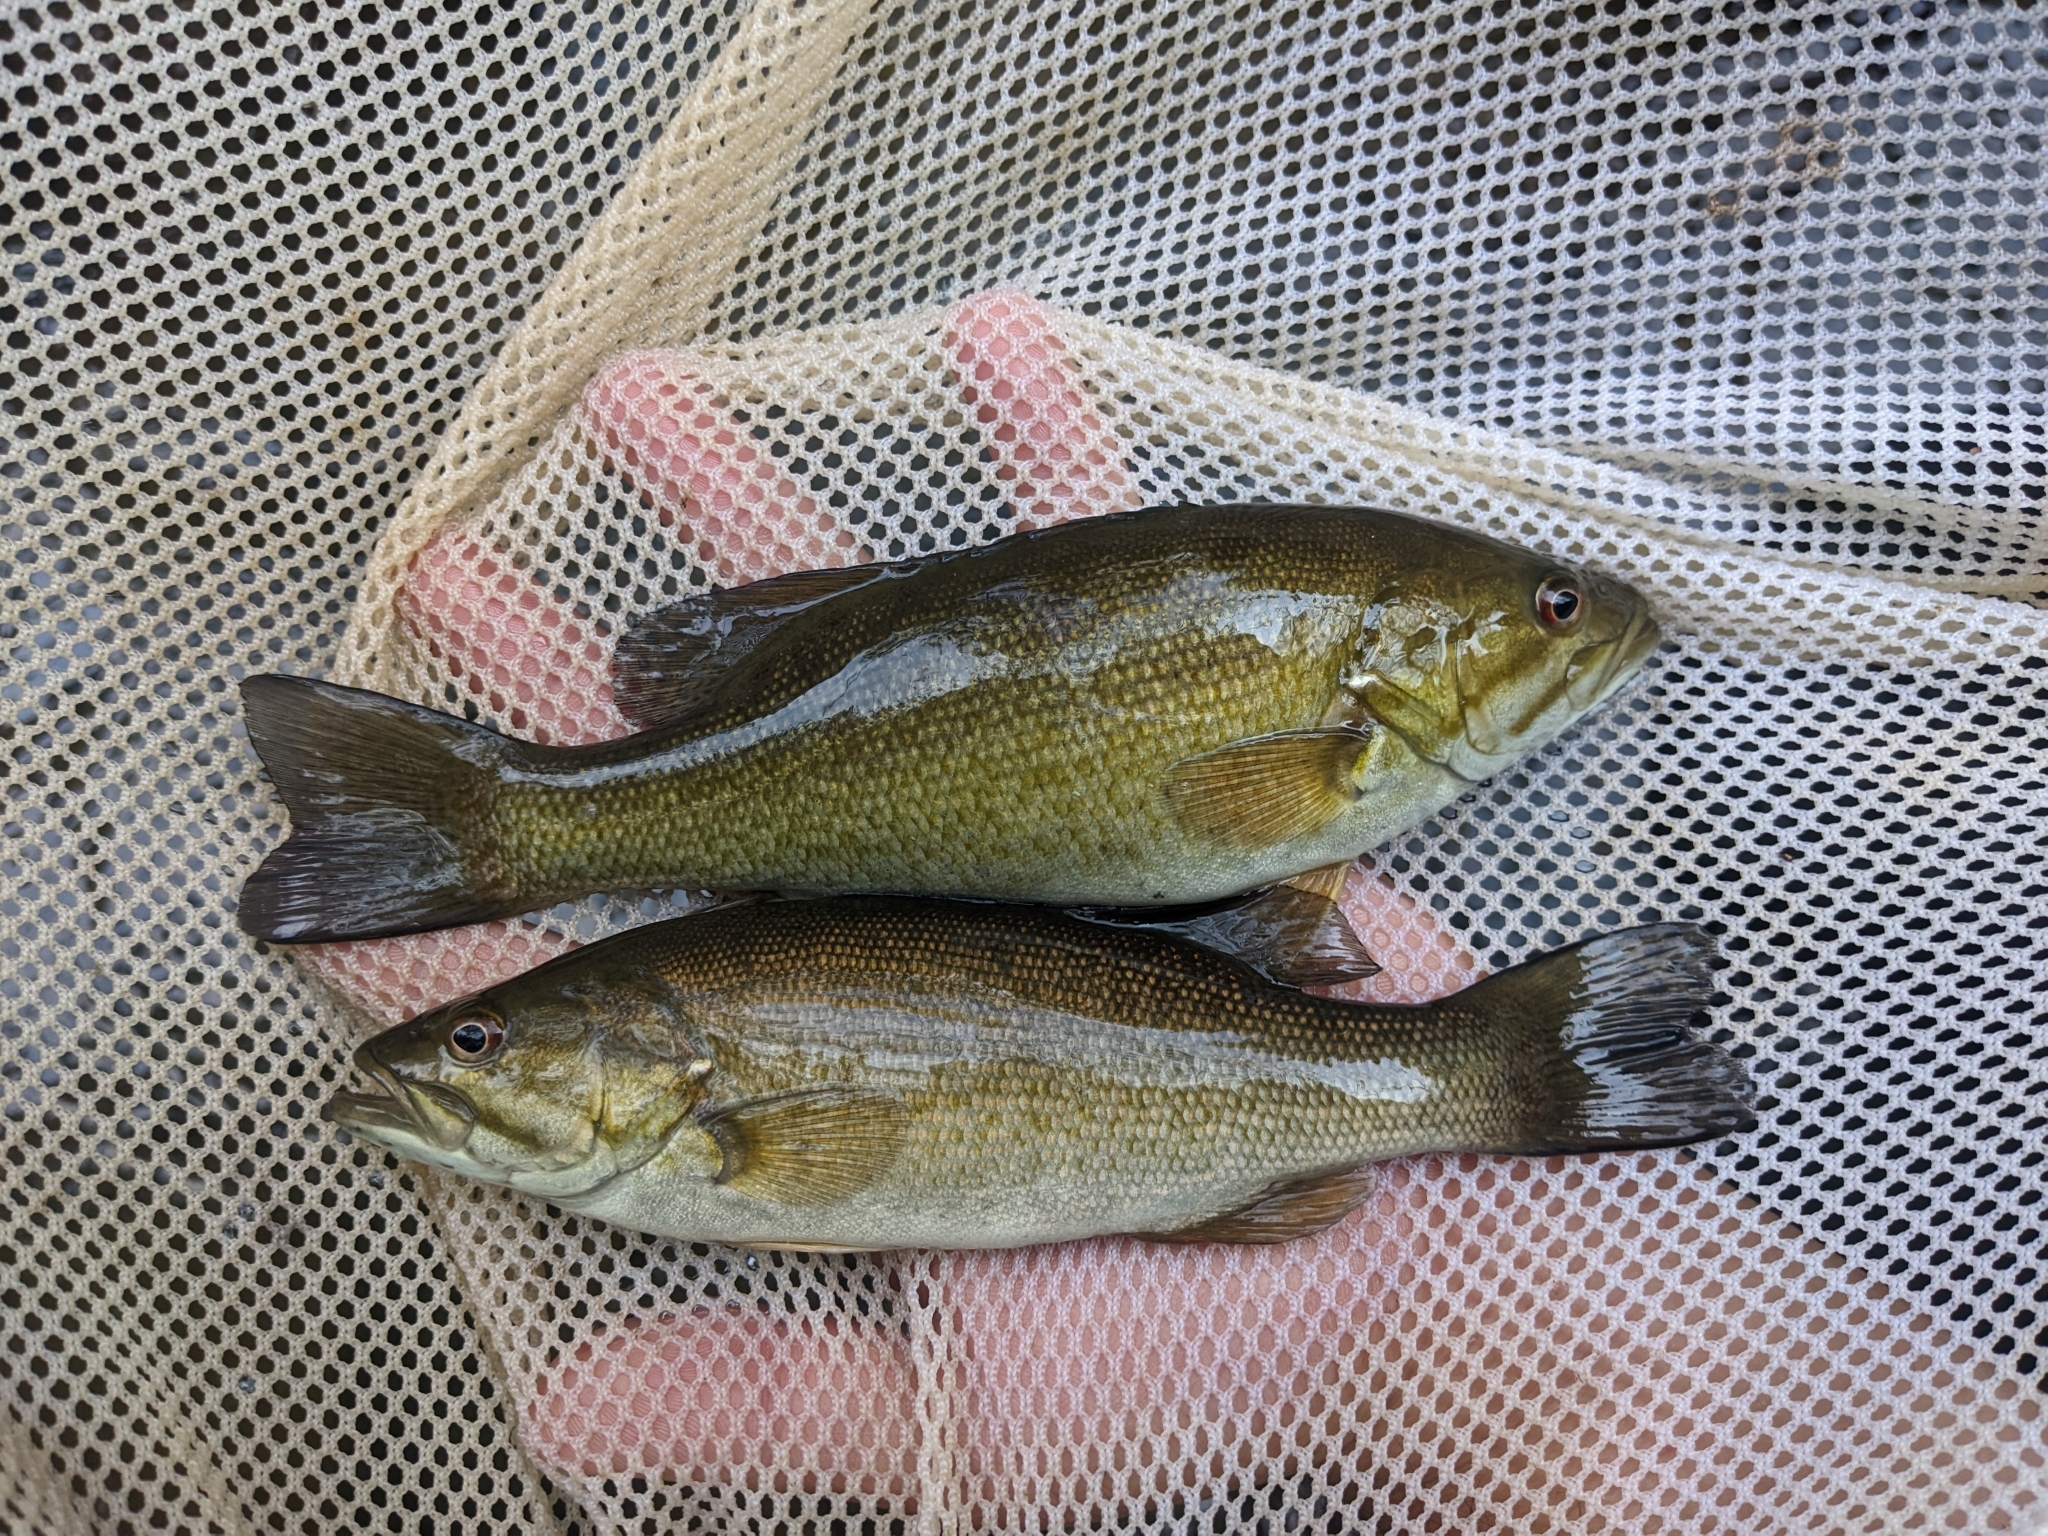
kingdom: Animalia
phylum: Chordata
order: Perciformes
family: Centrarchidae
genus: Micropterus
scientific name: Micropterus dolomieu
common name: Smallmouth bass
